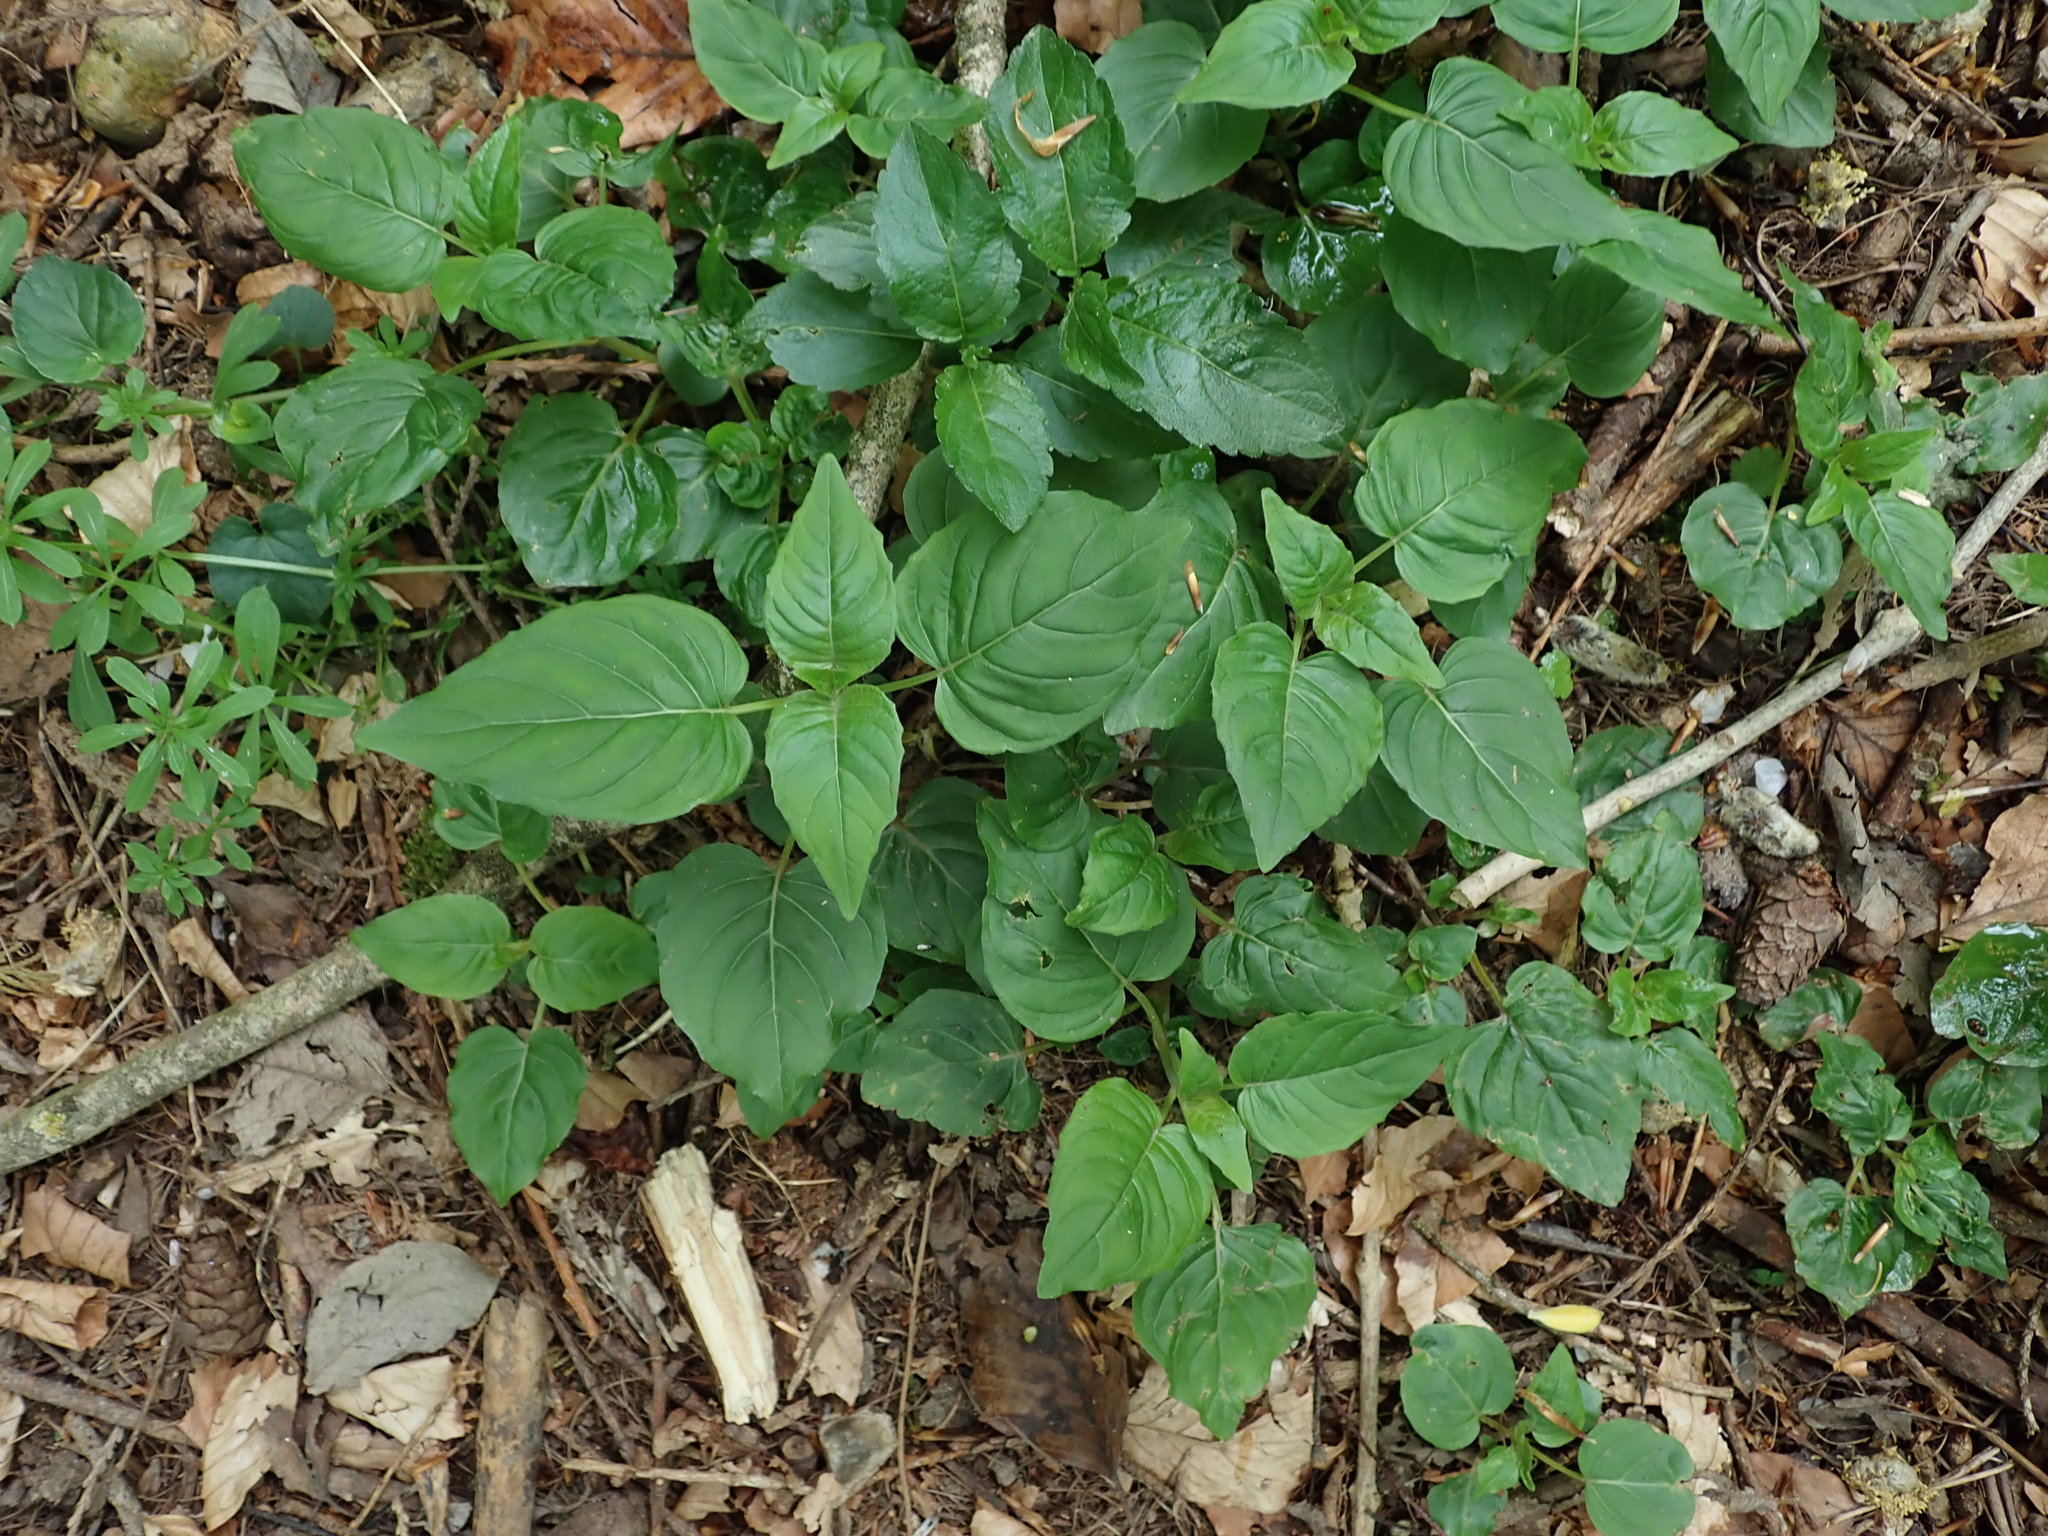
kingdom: Plantae
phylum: Tracheophyta
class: Magnoliopsida
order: Myrtales
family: Onagraceae
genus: Circaea
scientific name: Circaea lutetiana
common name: Enchanter's-nightshade
